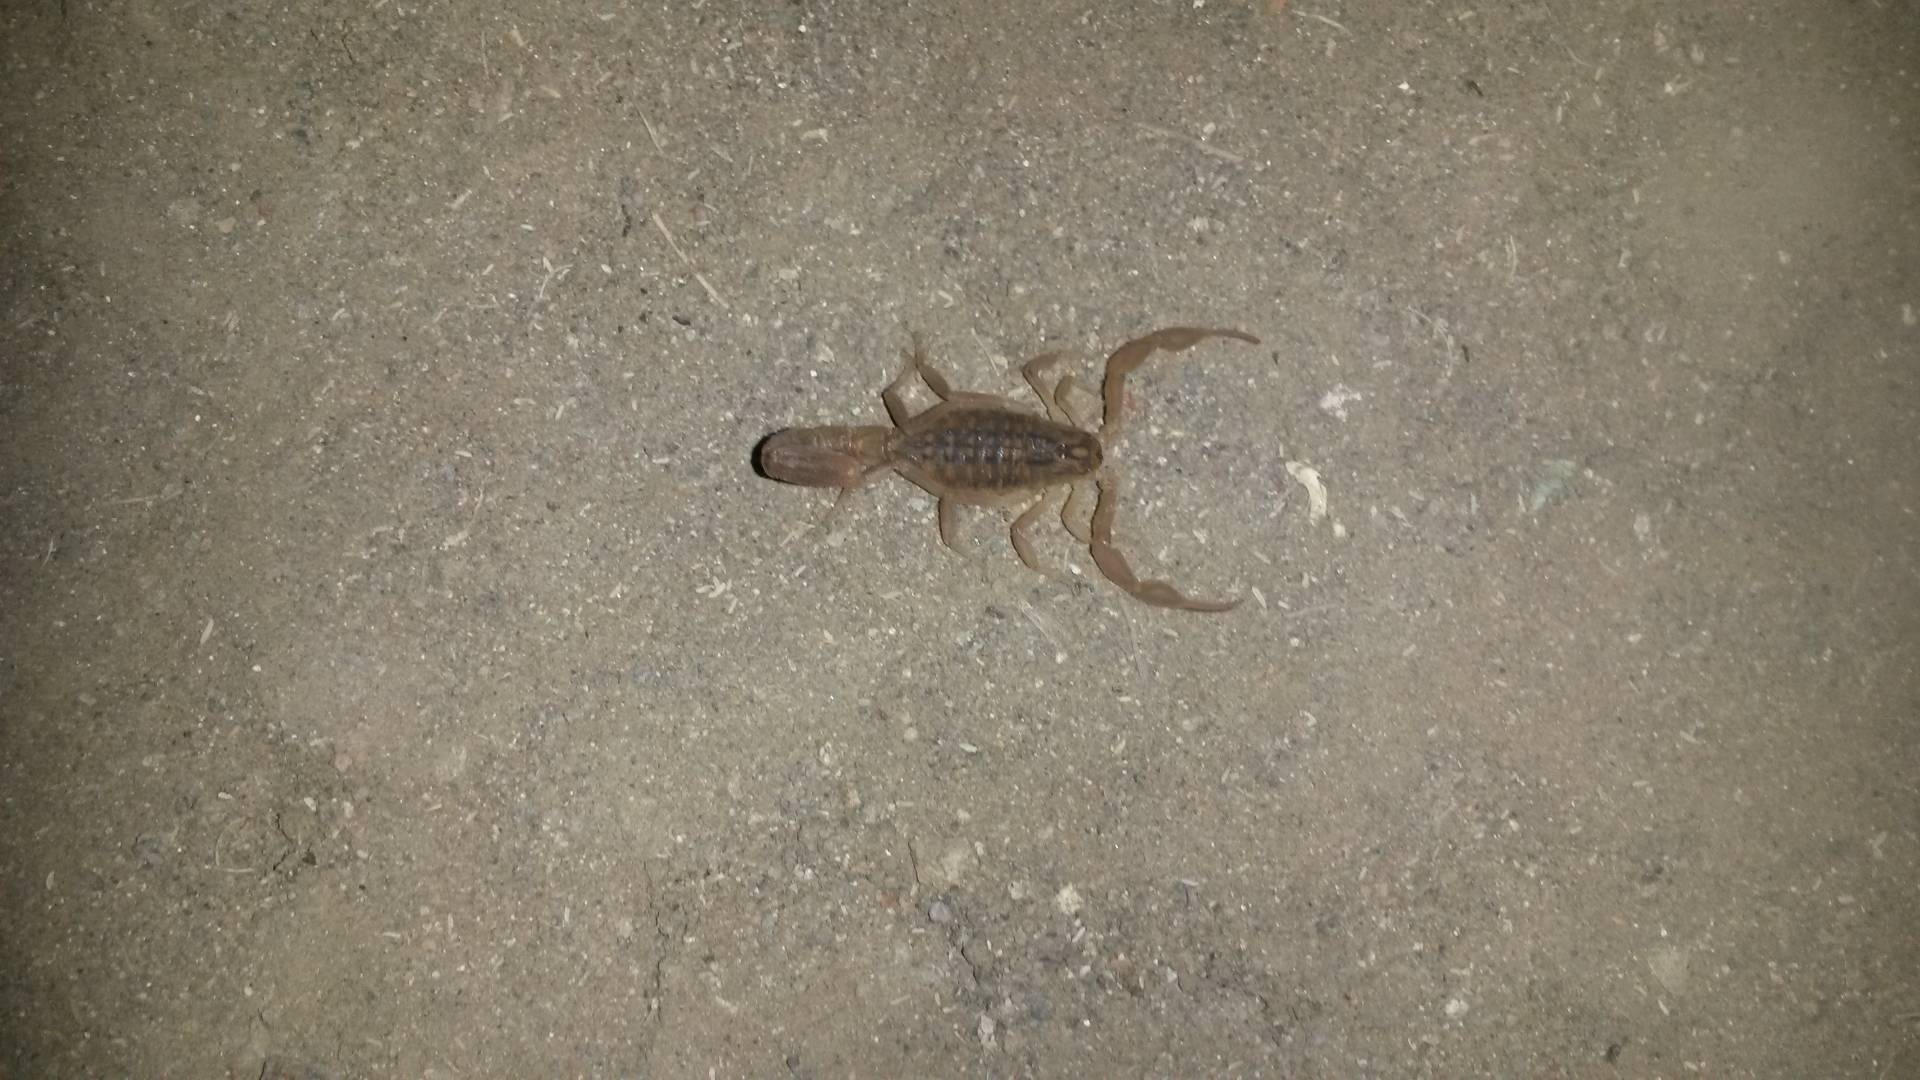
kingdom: Animalia
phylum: Arthropoda
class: Arachnida
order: Scorpiones
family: Buthidae
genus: Hottentotta
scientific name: Hottentotta trilineatus
